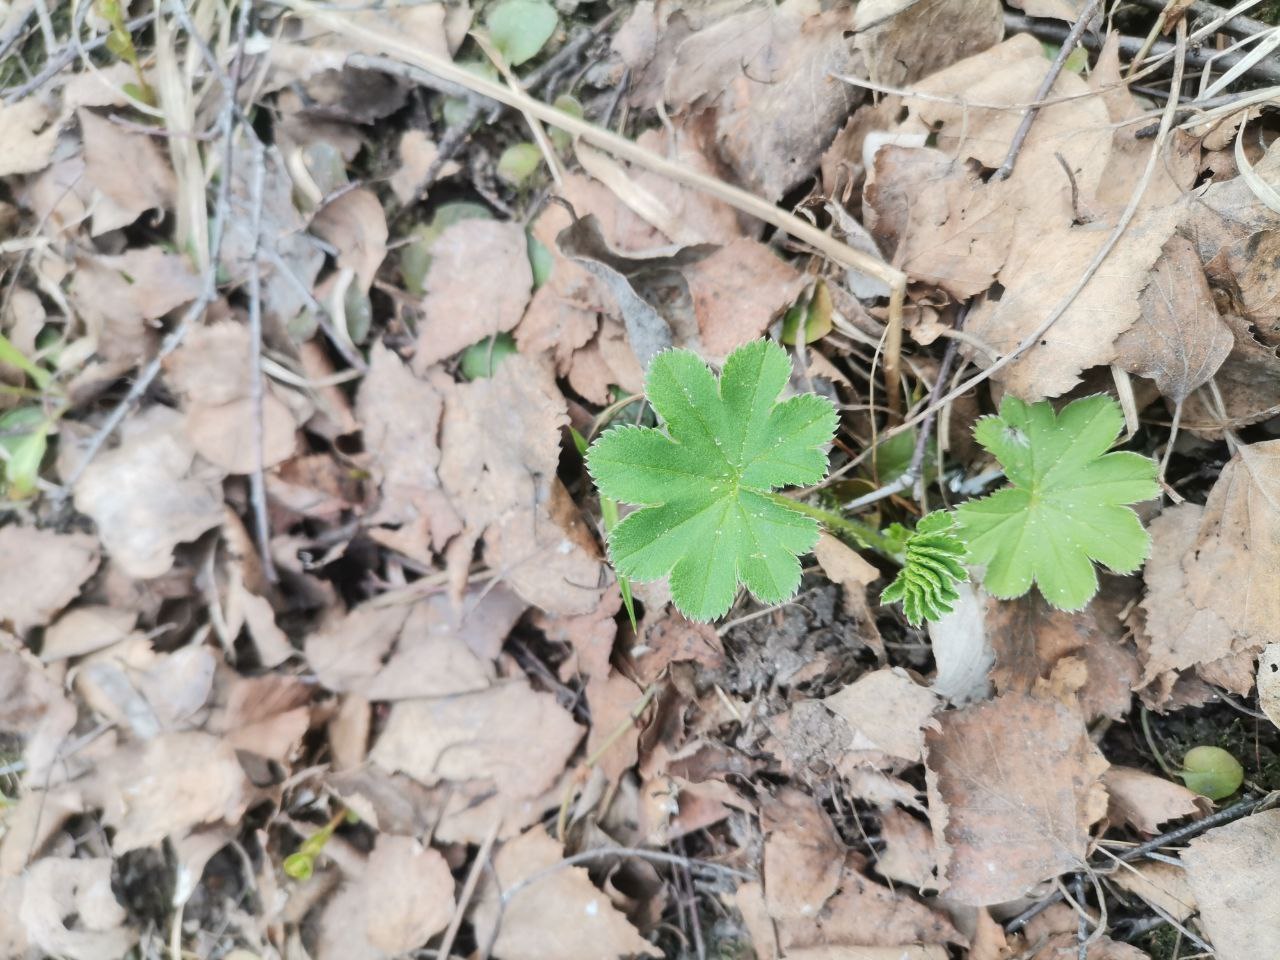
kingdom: Plantae
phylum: Tracheophyta
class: Magnoliopsida
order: Rosales
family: Rosaceae
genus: Alchemilla
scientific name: Alchemilla
